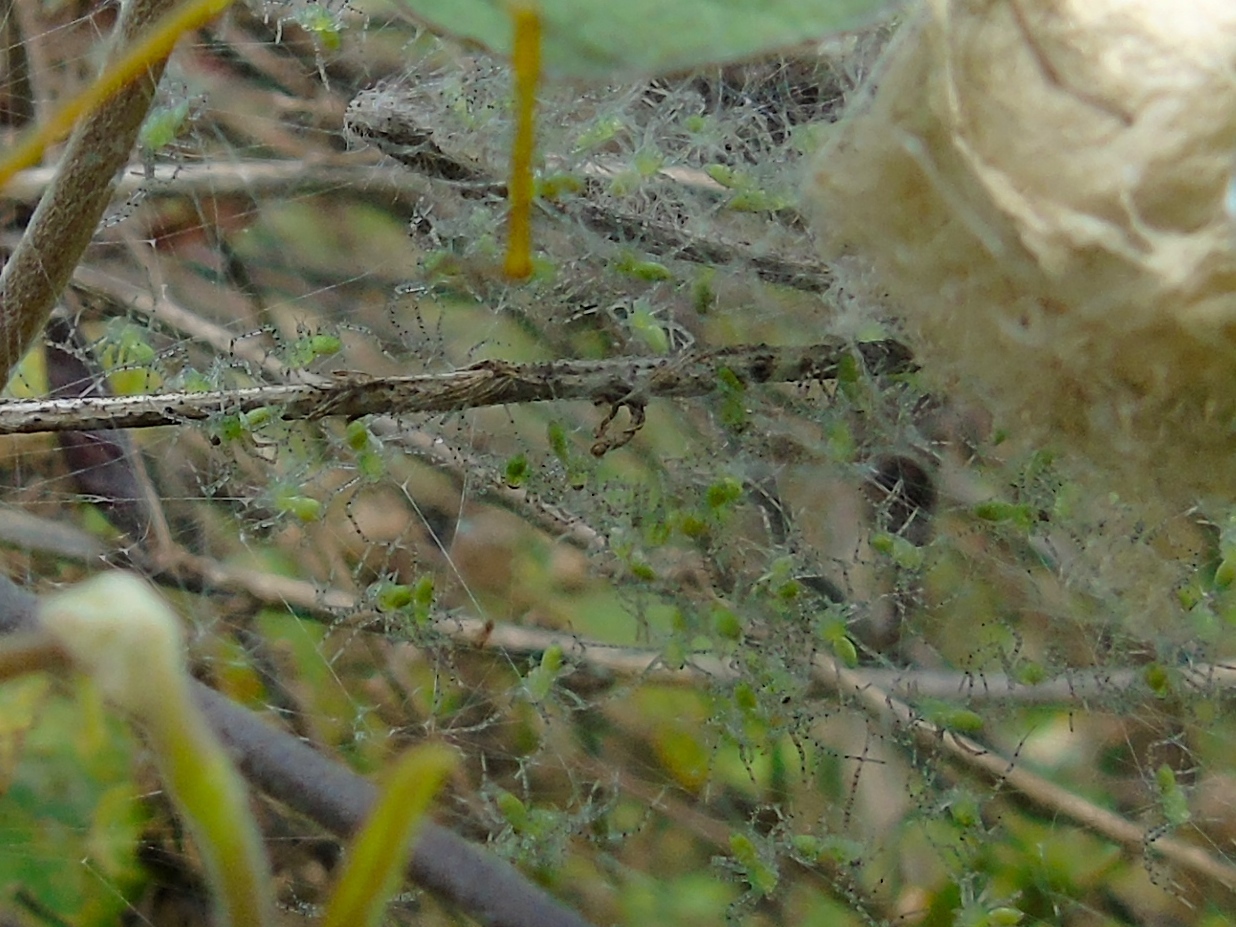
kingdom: Animalia
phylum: Arthropoda
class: Arachnida
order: Araneae
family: Oxyopidae
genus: Peucetia
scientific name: Peucetia
